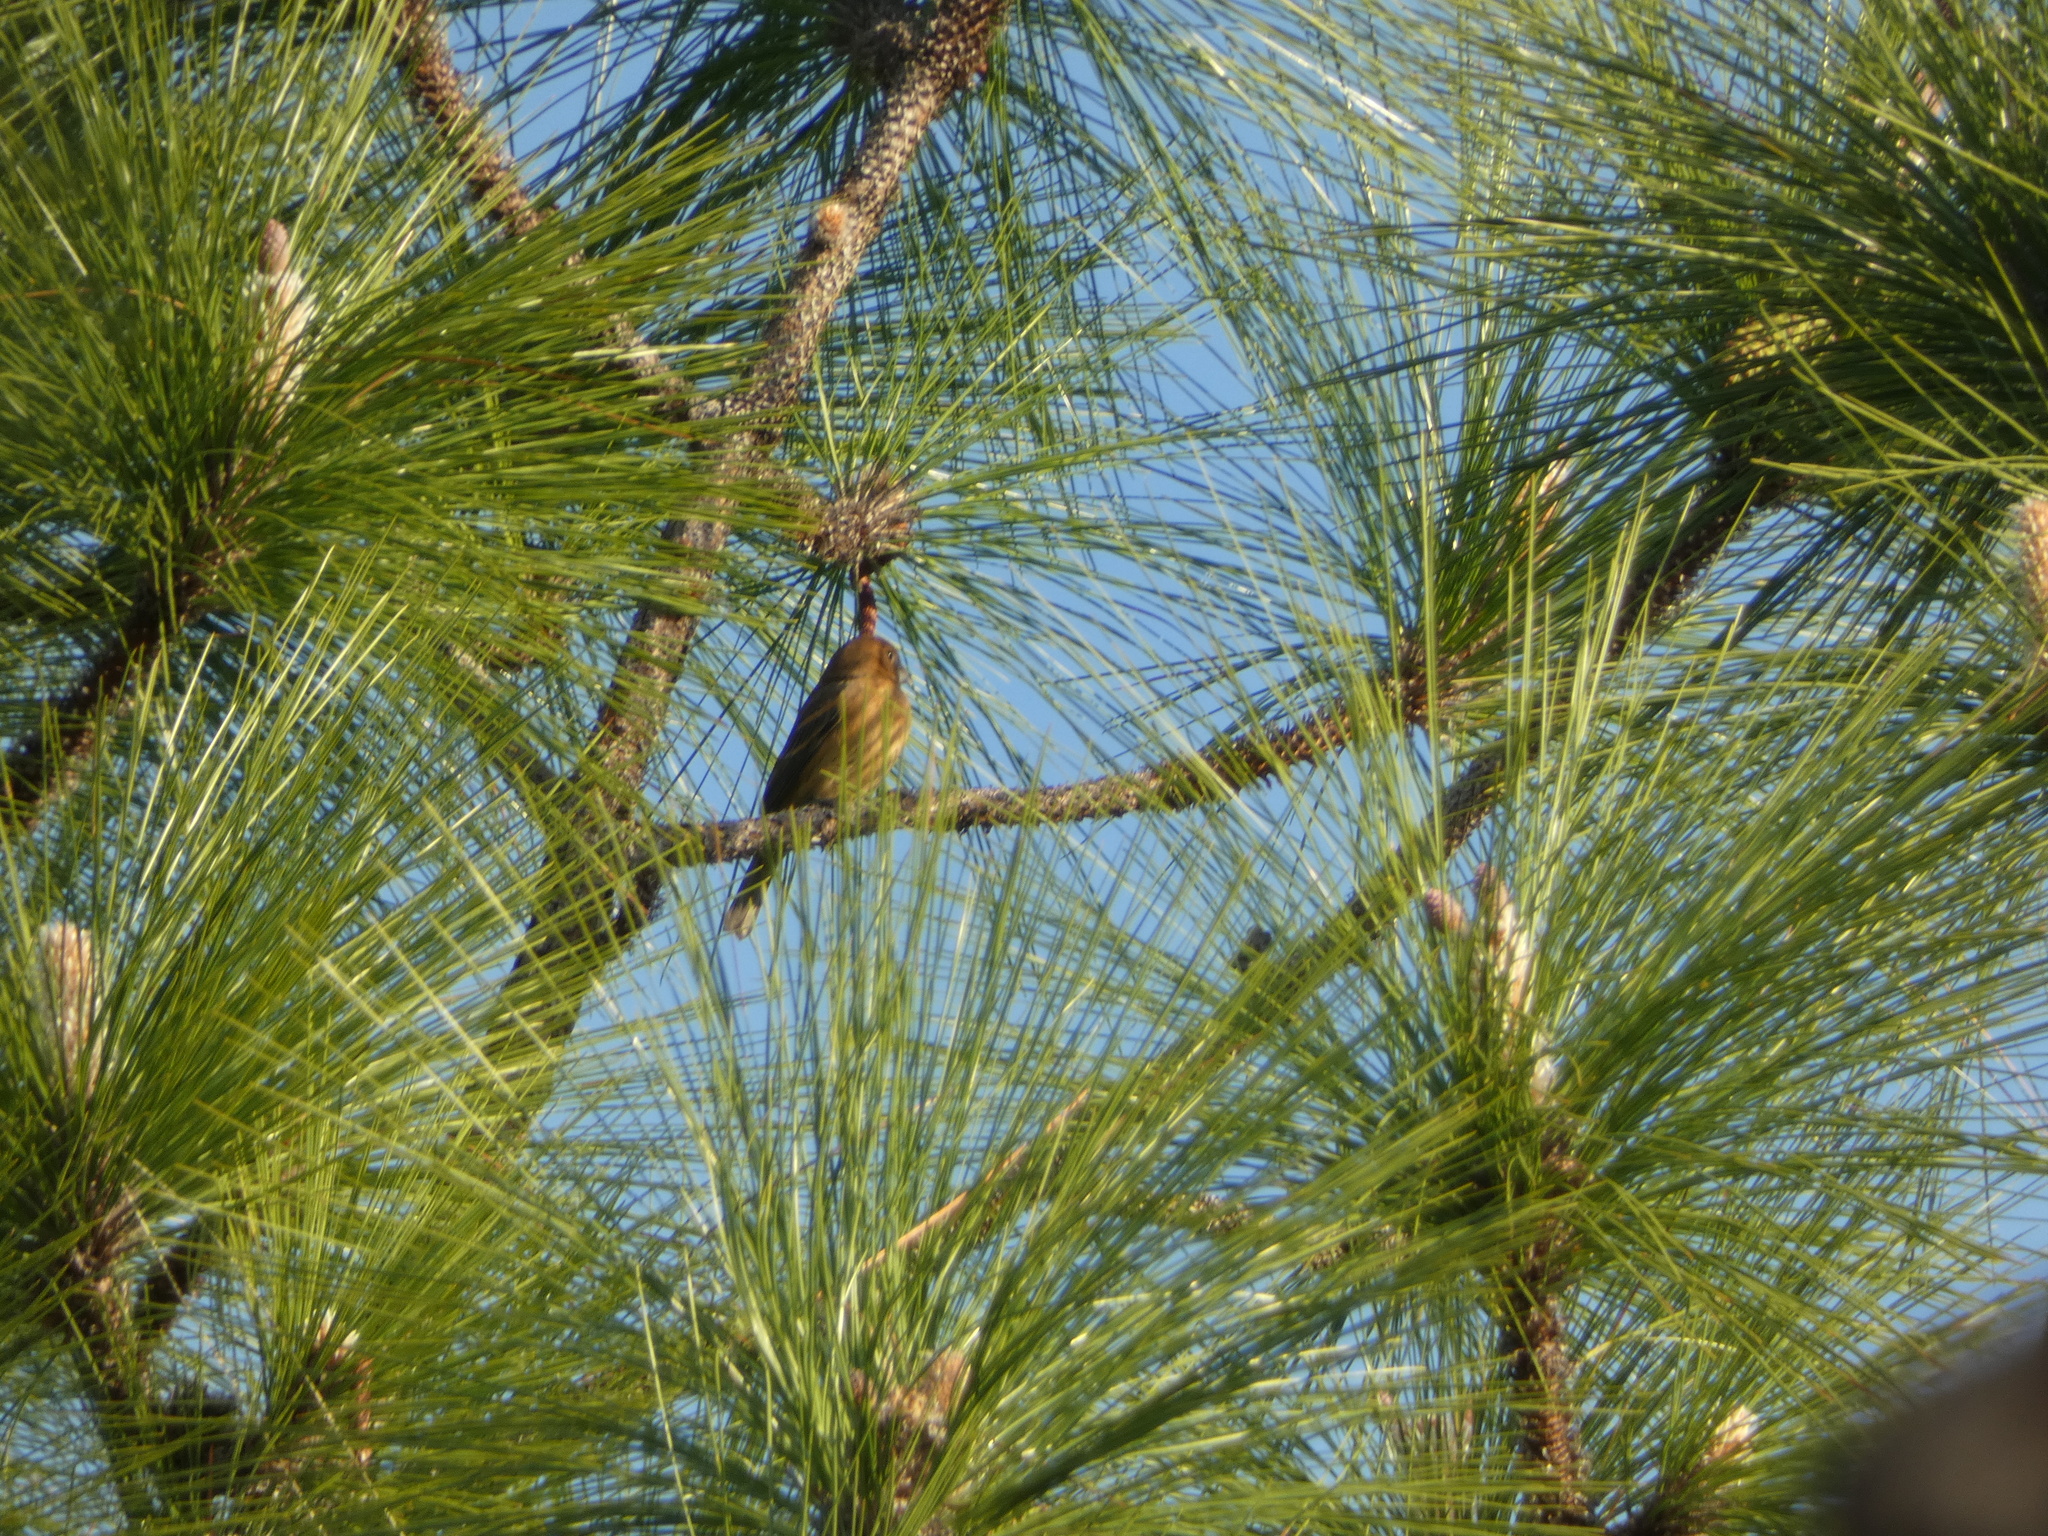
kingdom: Animalia
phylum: Chordata
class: Aves
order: Passeriformes
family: Cardinalidae
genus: Passerina
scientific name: Passerina caerulea
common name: Blue grosbeak
